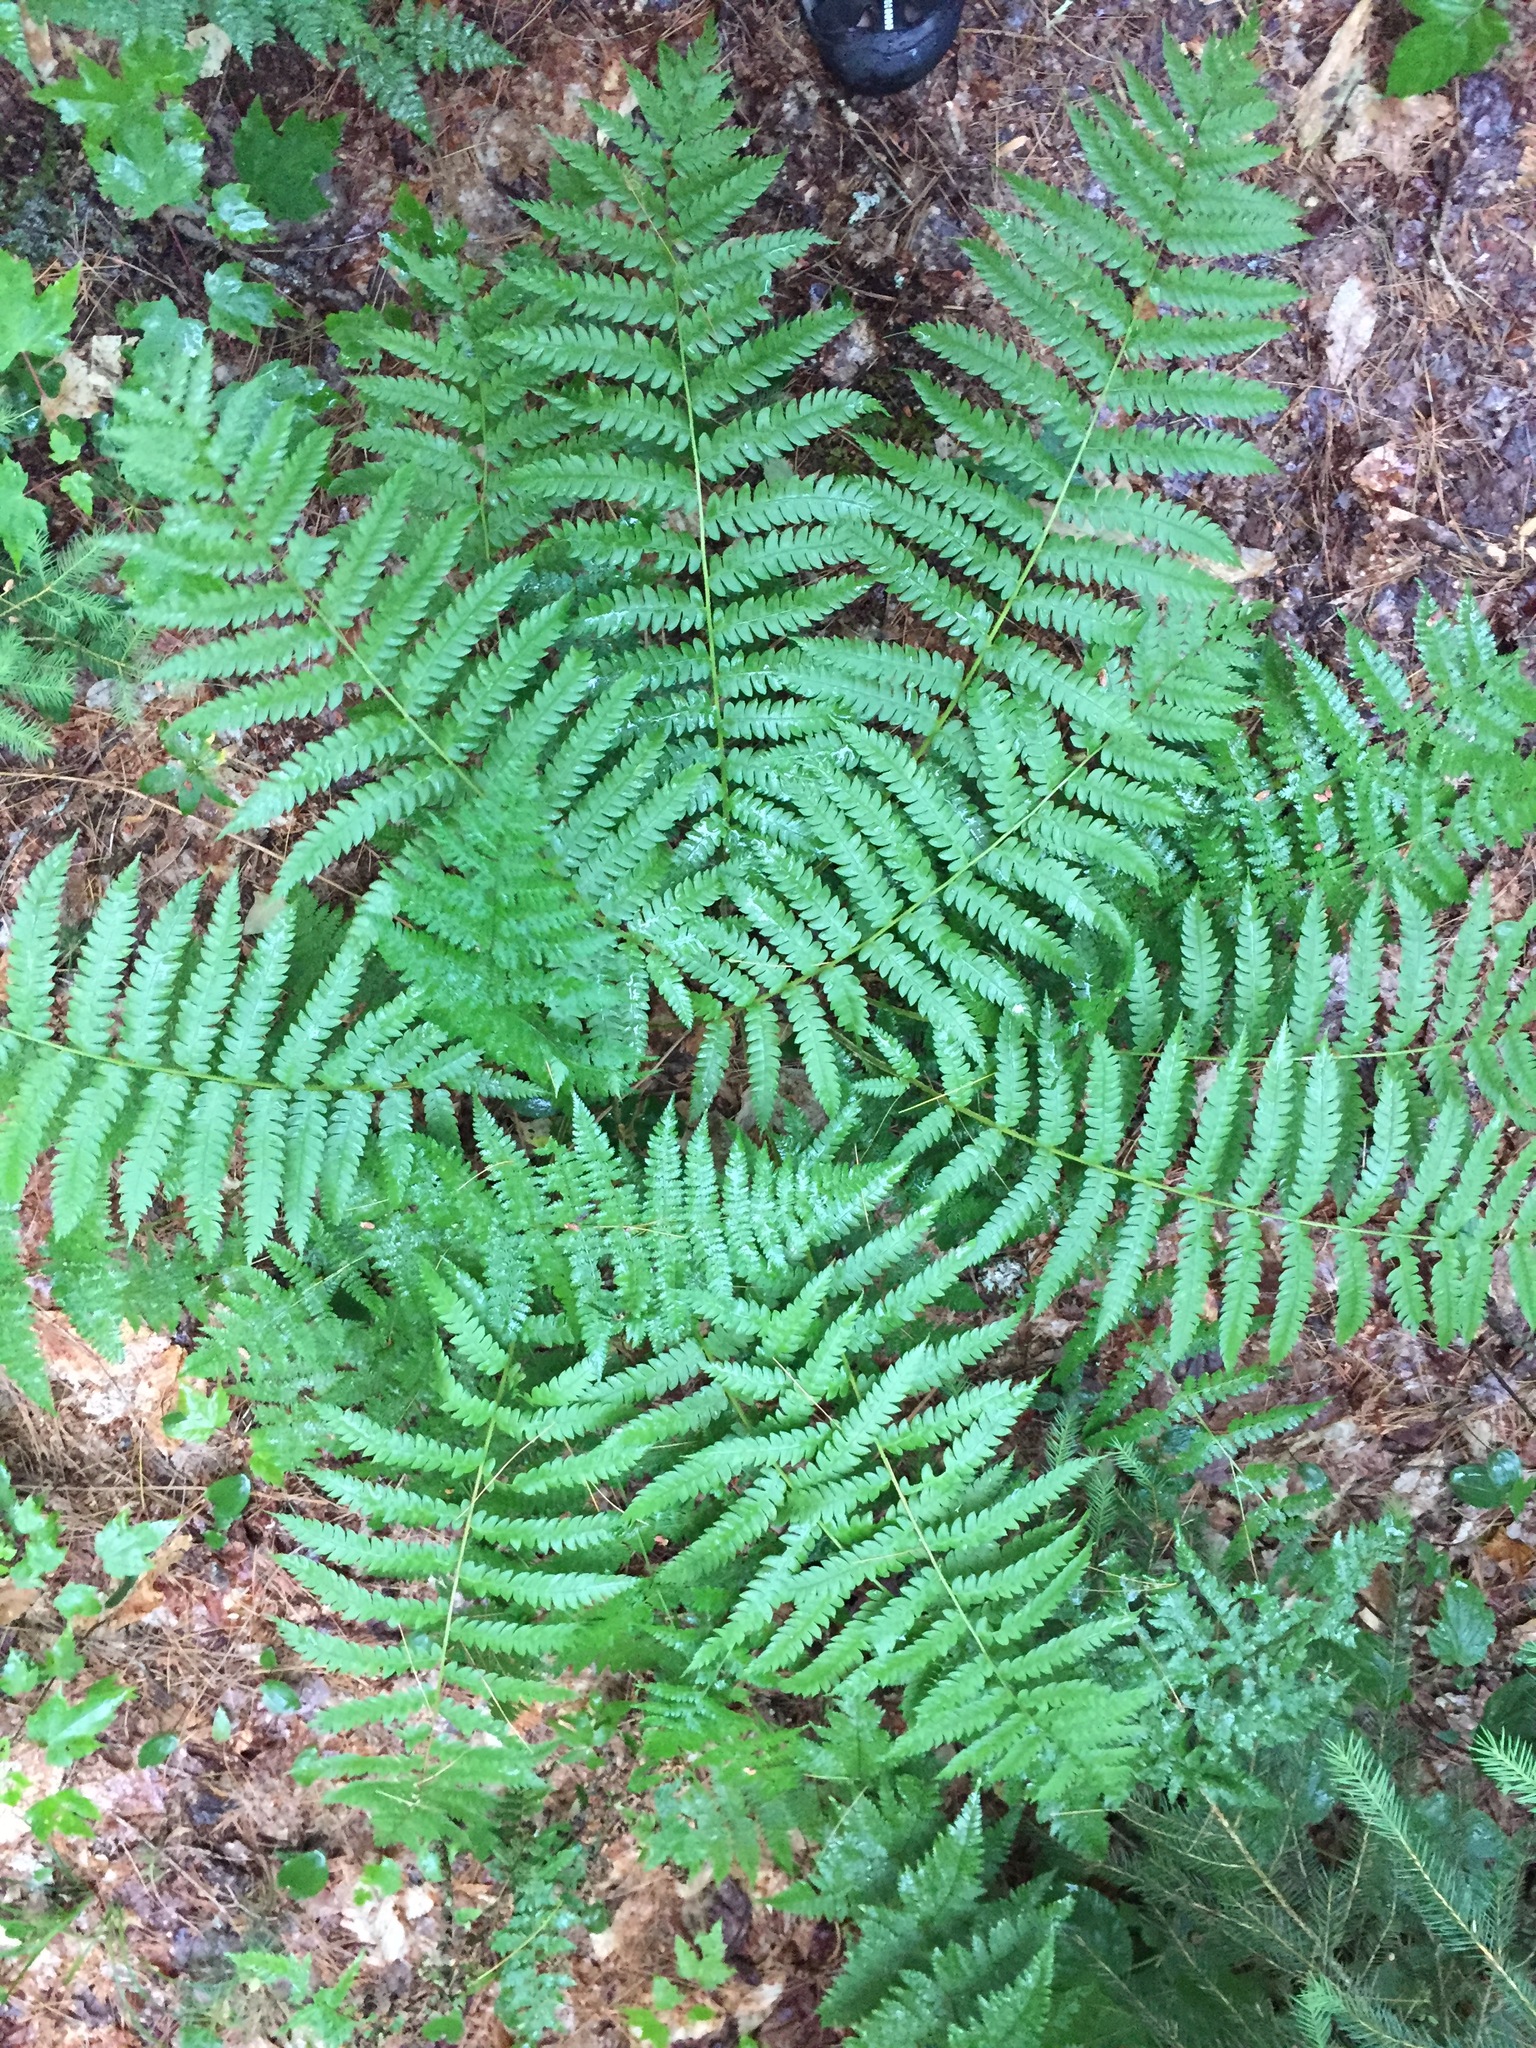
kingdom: Plantae
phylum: Tracheophyta
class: Polypodiopsida
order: Osmundales
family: Osmundaceae
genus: Osmundastrum
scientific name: Osmundastrum cinnamomeum
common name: Cinnamon fern
